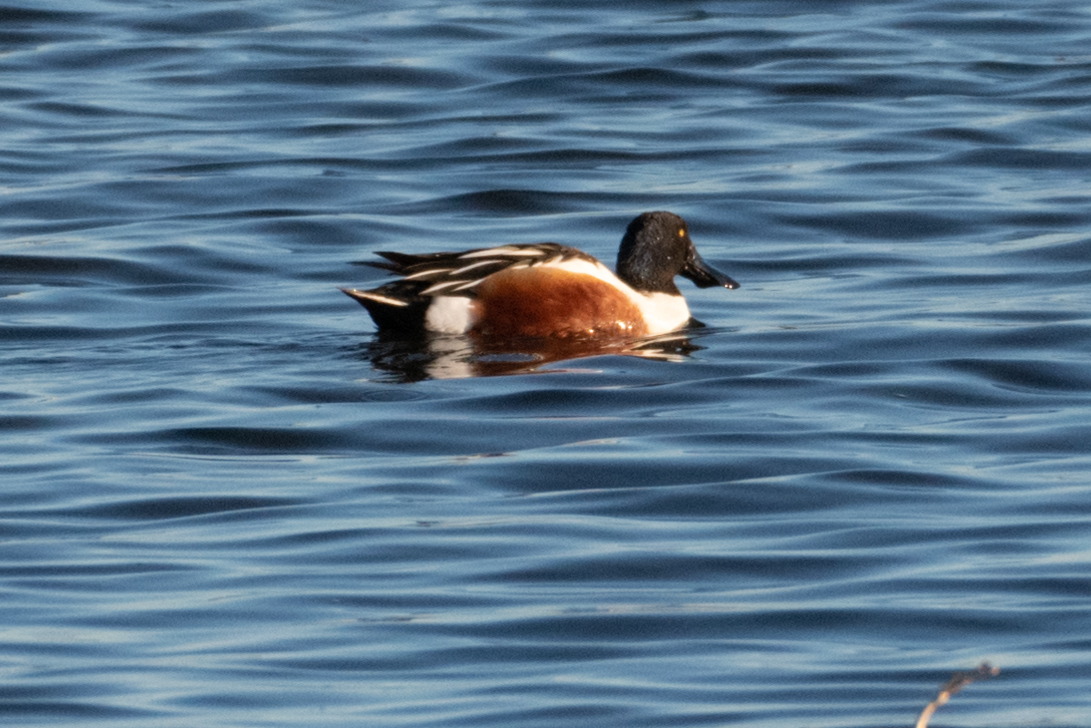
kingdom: Animalia
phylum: Chordata
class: Aves
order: Anseriformes
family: Anatidae
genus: Spatula
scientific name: Spatula clypeata
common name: Northern shoveler
